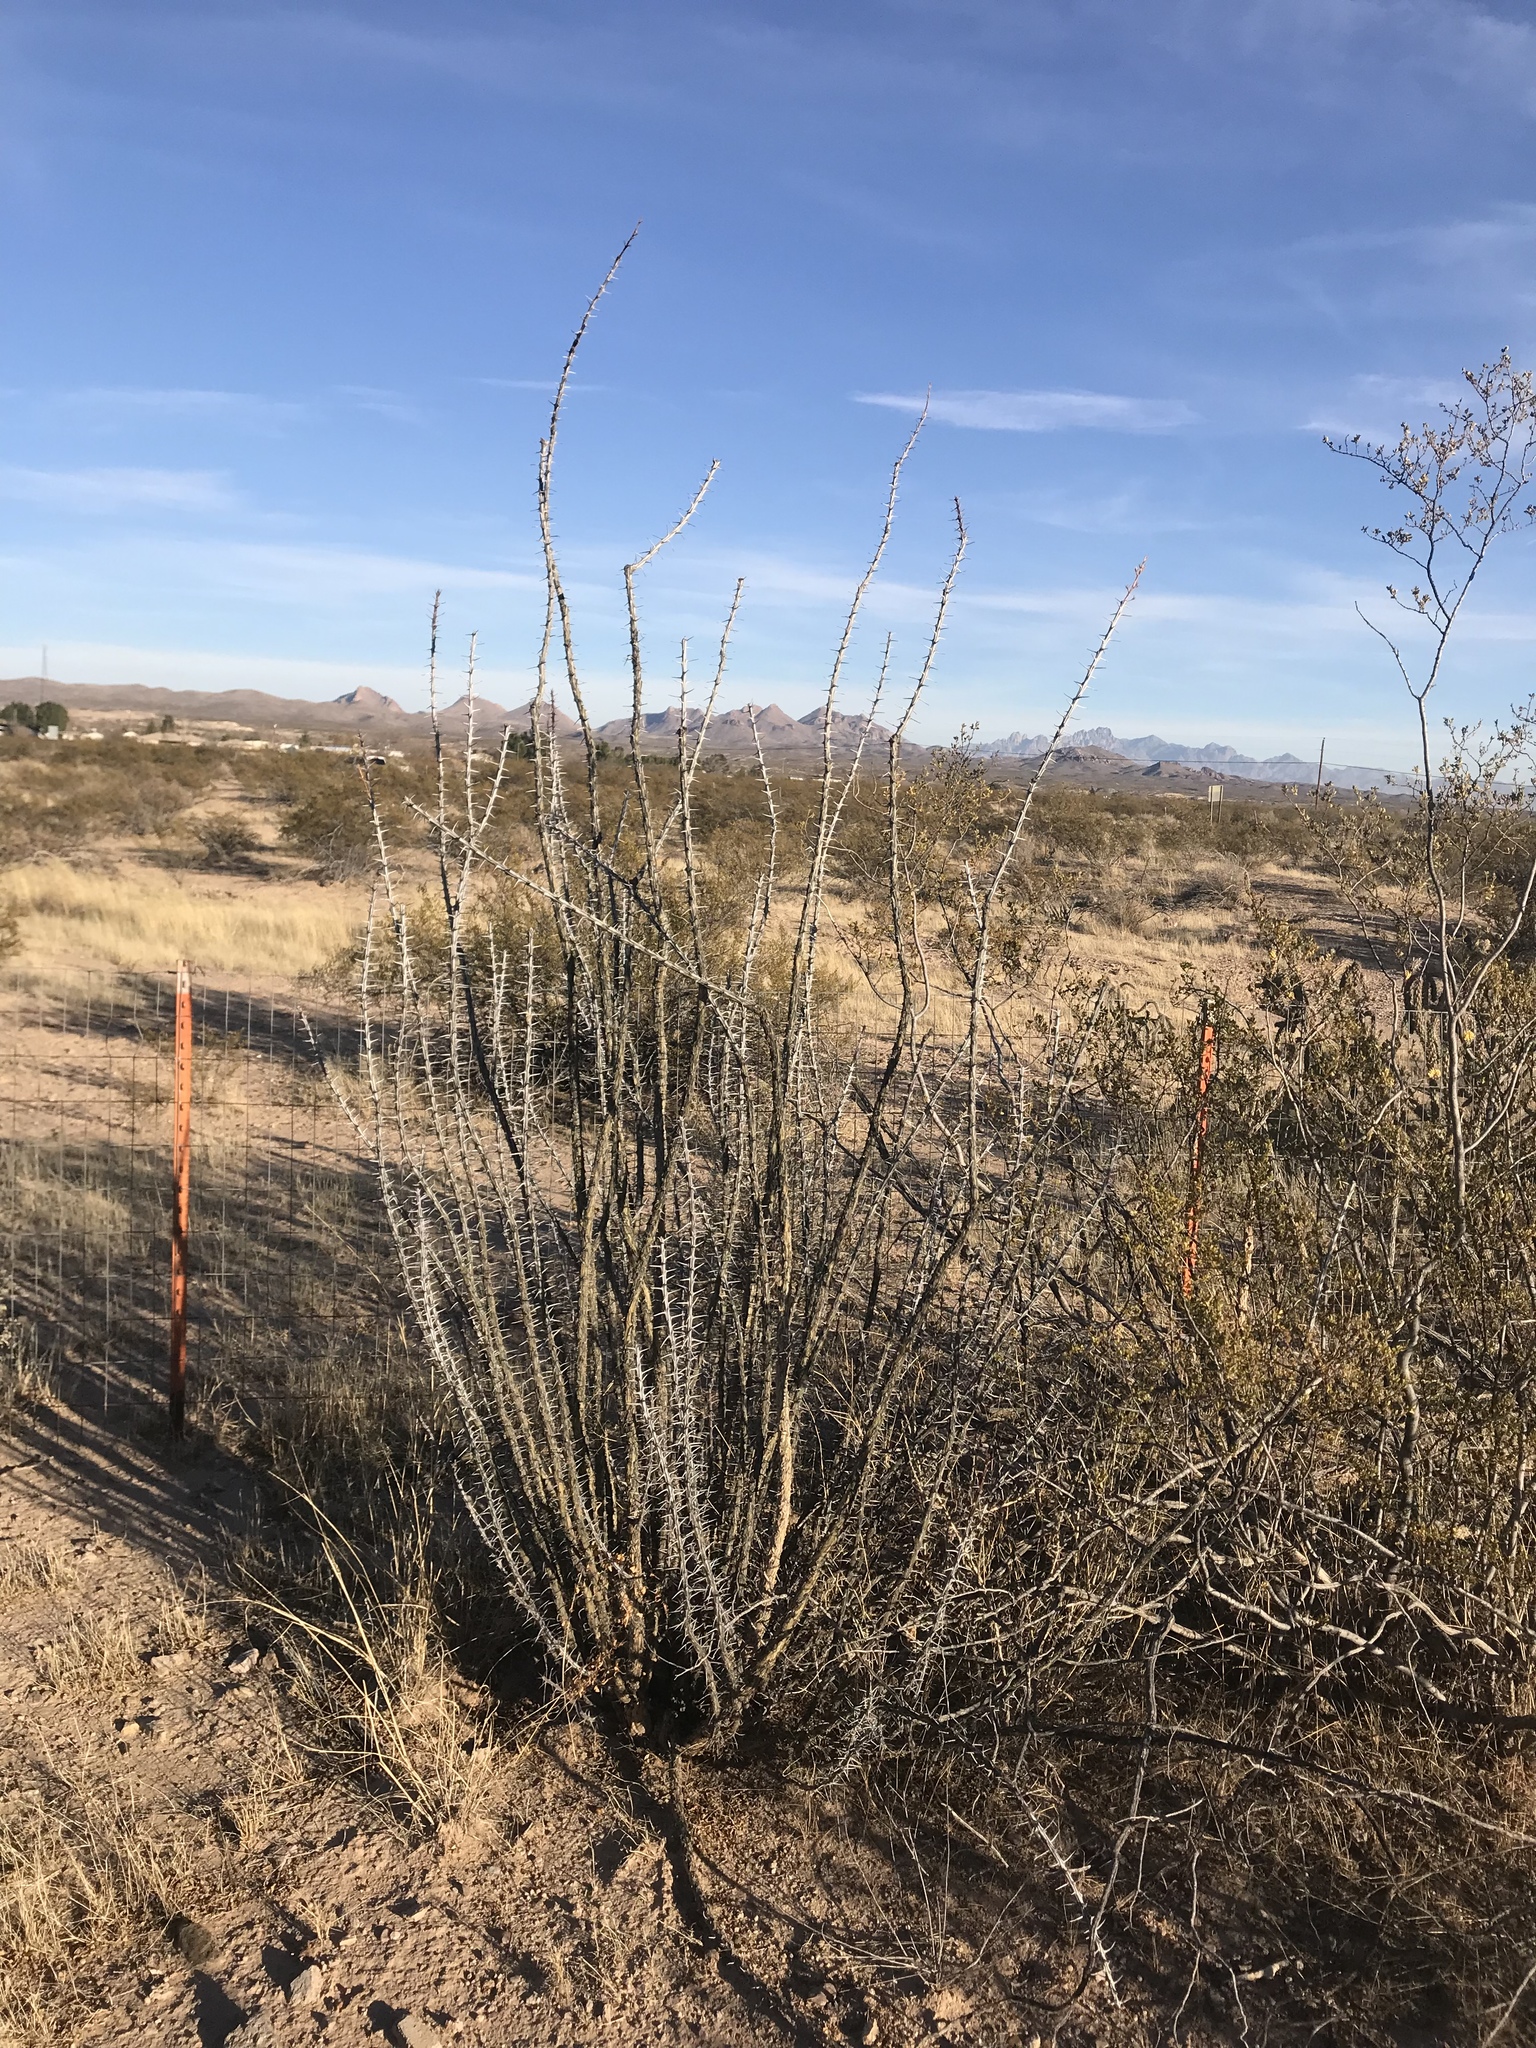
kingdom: Plantae
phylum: Tracheophyta
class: Magnoliopsida
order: Ericales
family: Fouquieriaceae
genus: Fouquieria
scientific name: Fouquieria splendens
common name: Vine-cactus
